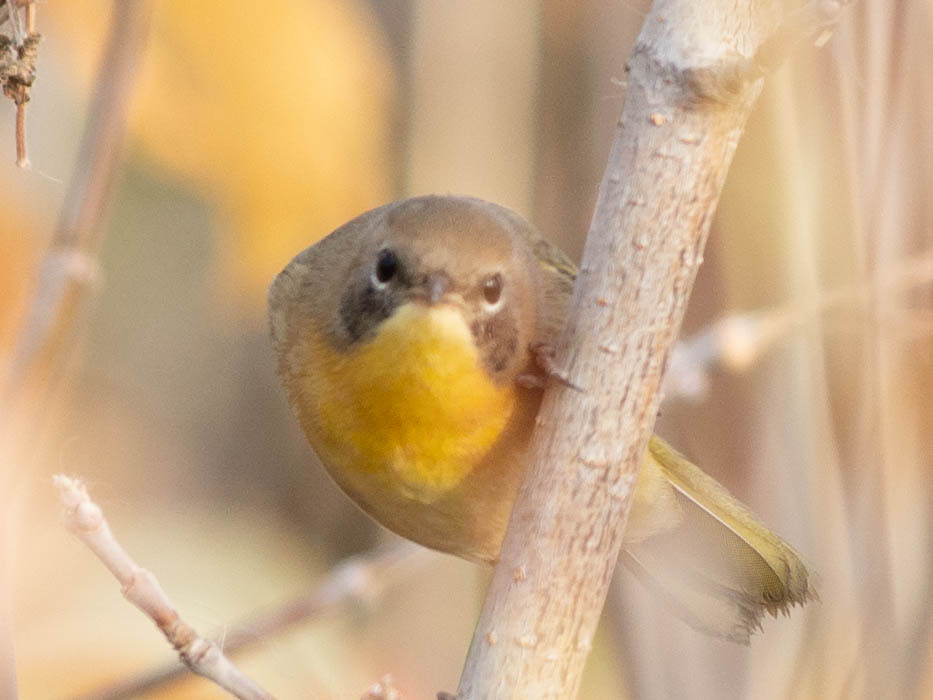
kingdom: Animalia
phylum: Chordata
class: Aves
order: Passeriformes
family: Parulidae
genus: Geothlypis
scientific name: Geothlypis trichas
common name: Common yellowthroat
